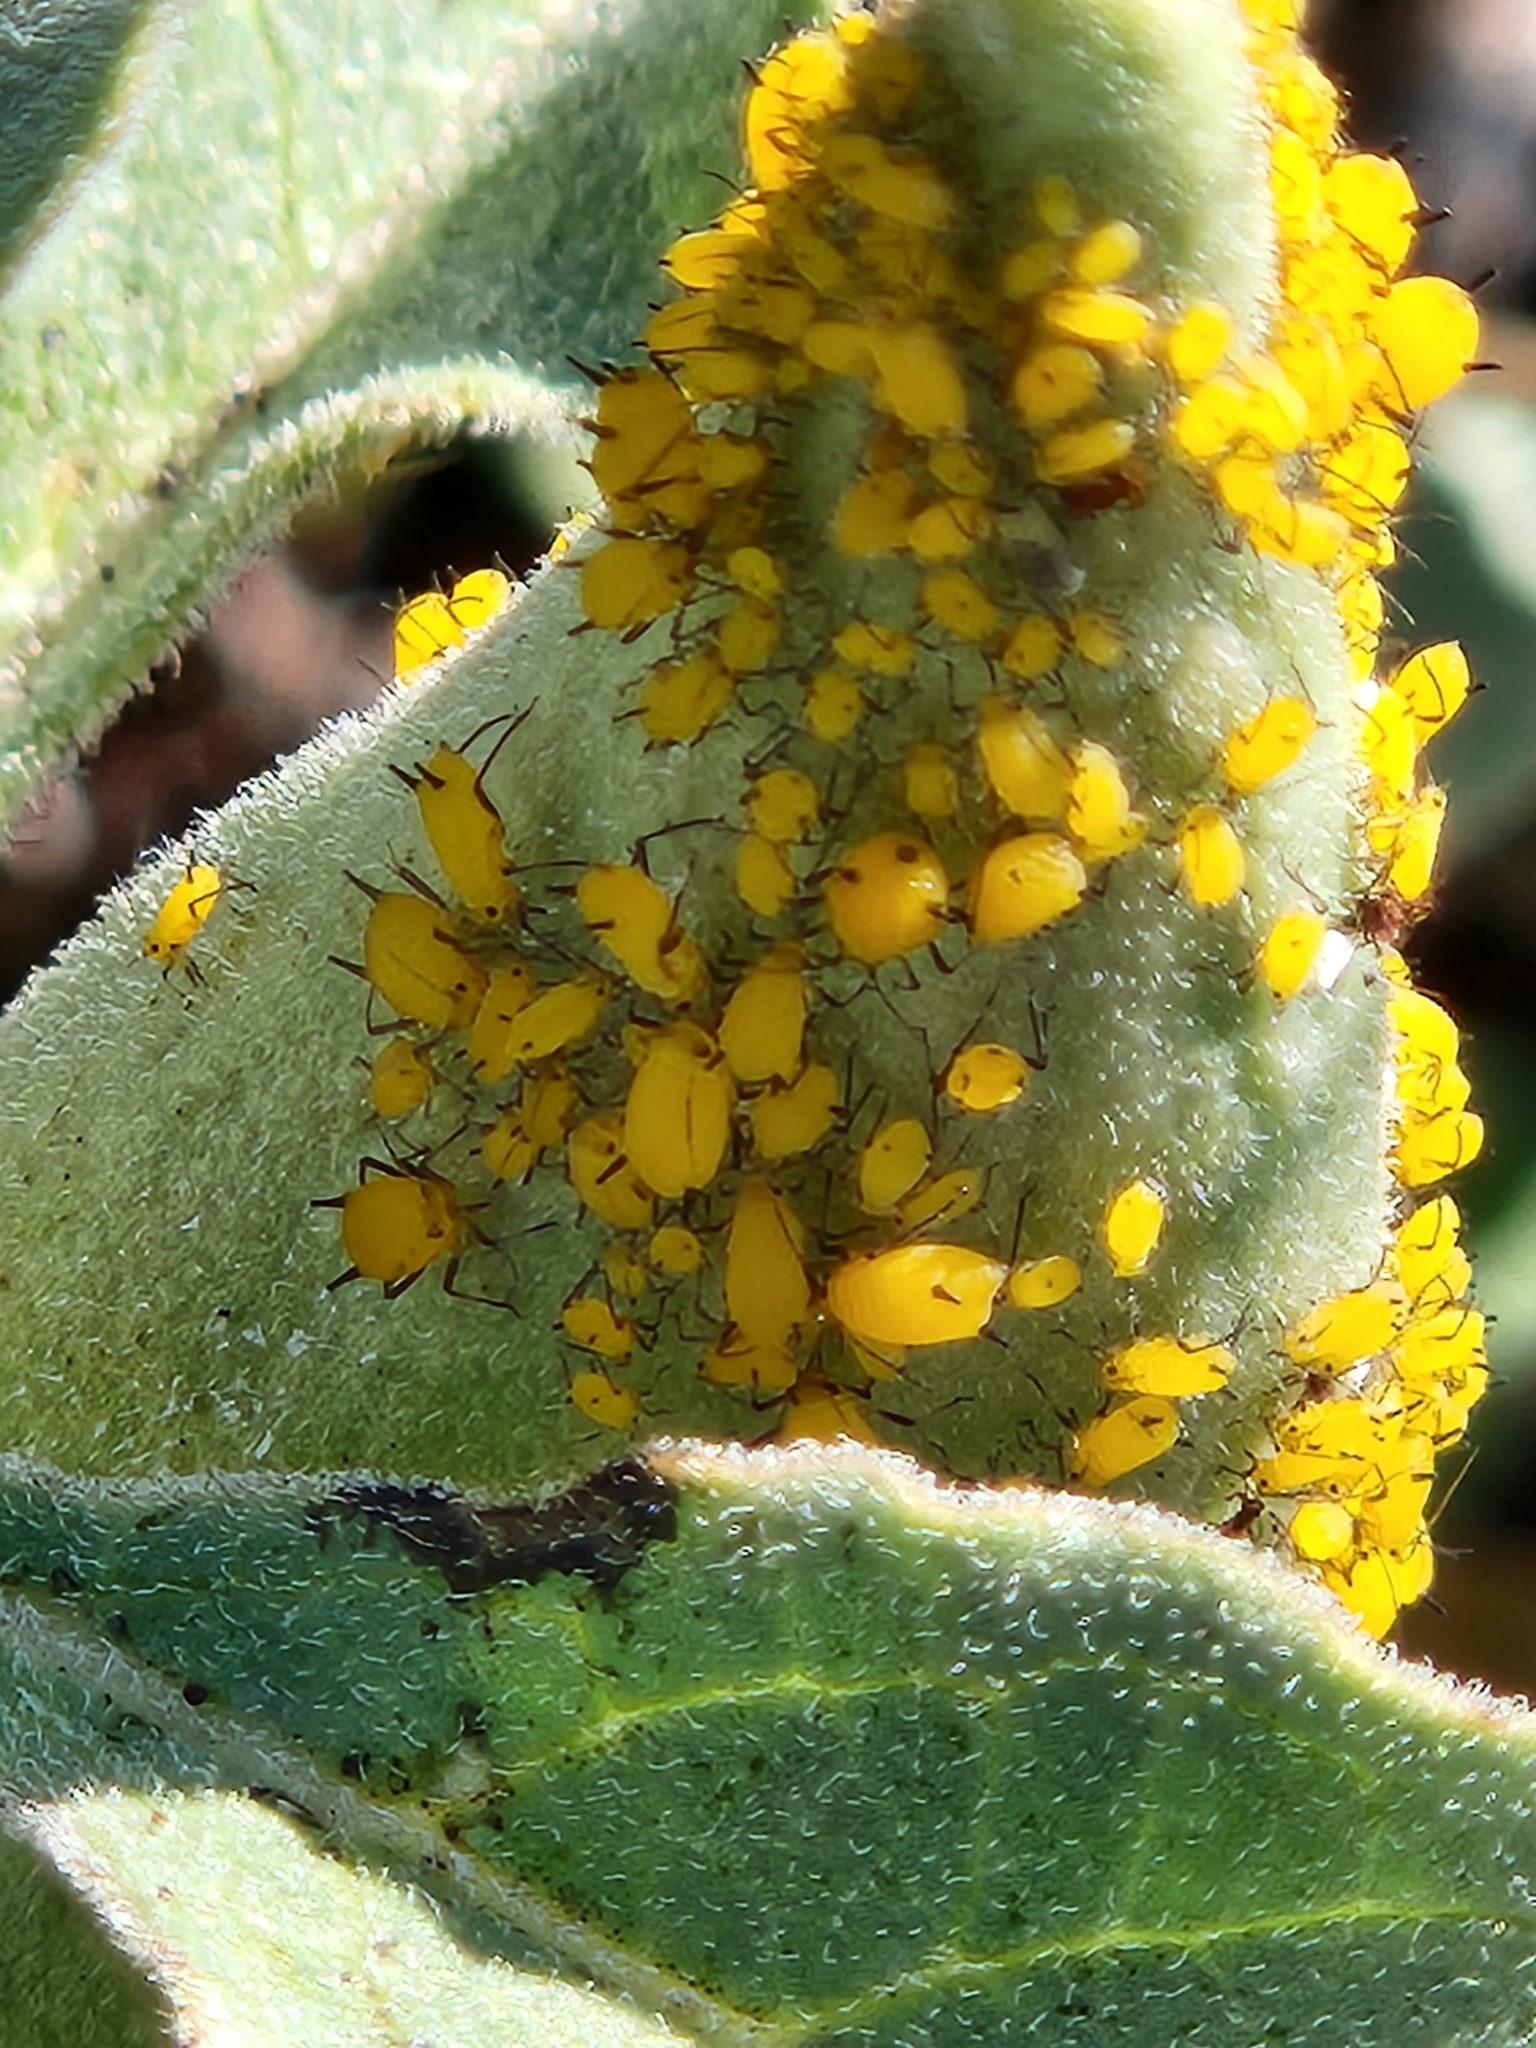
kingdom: Animalia
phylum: Arthropoda
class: Insecta
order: Hemiptera
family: Aphididae
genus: Aphis
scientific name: Aphis nerii
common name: Oleander aphid
